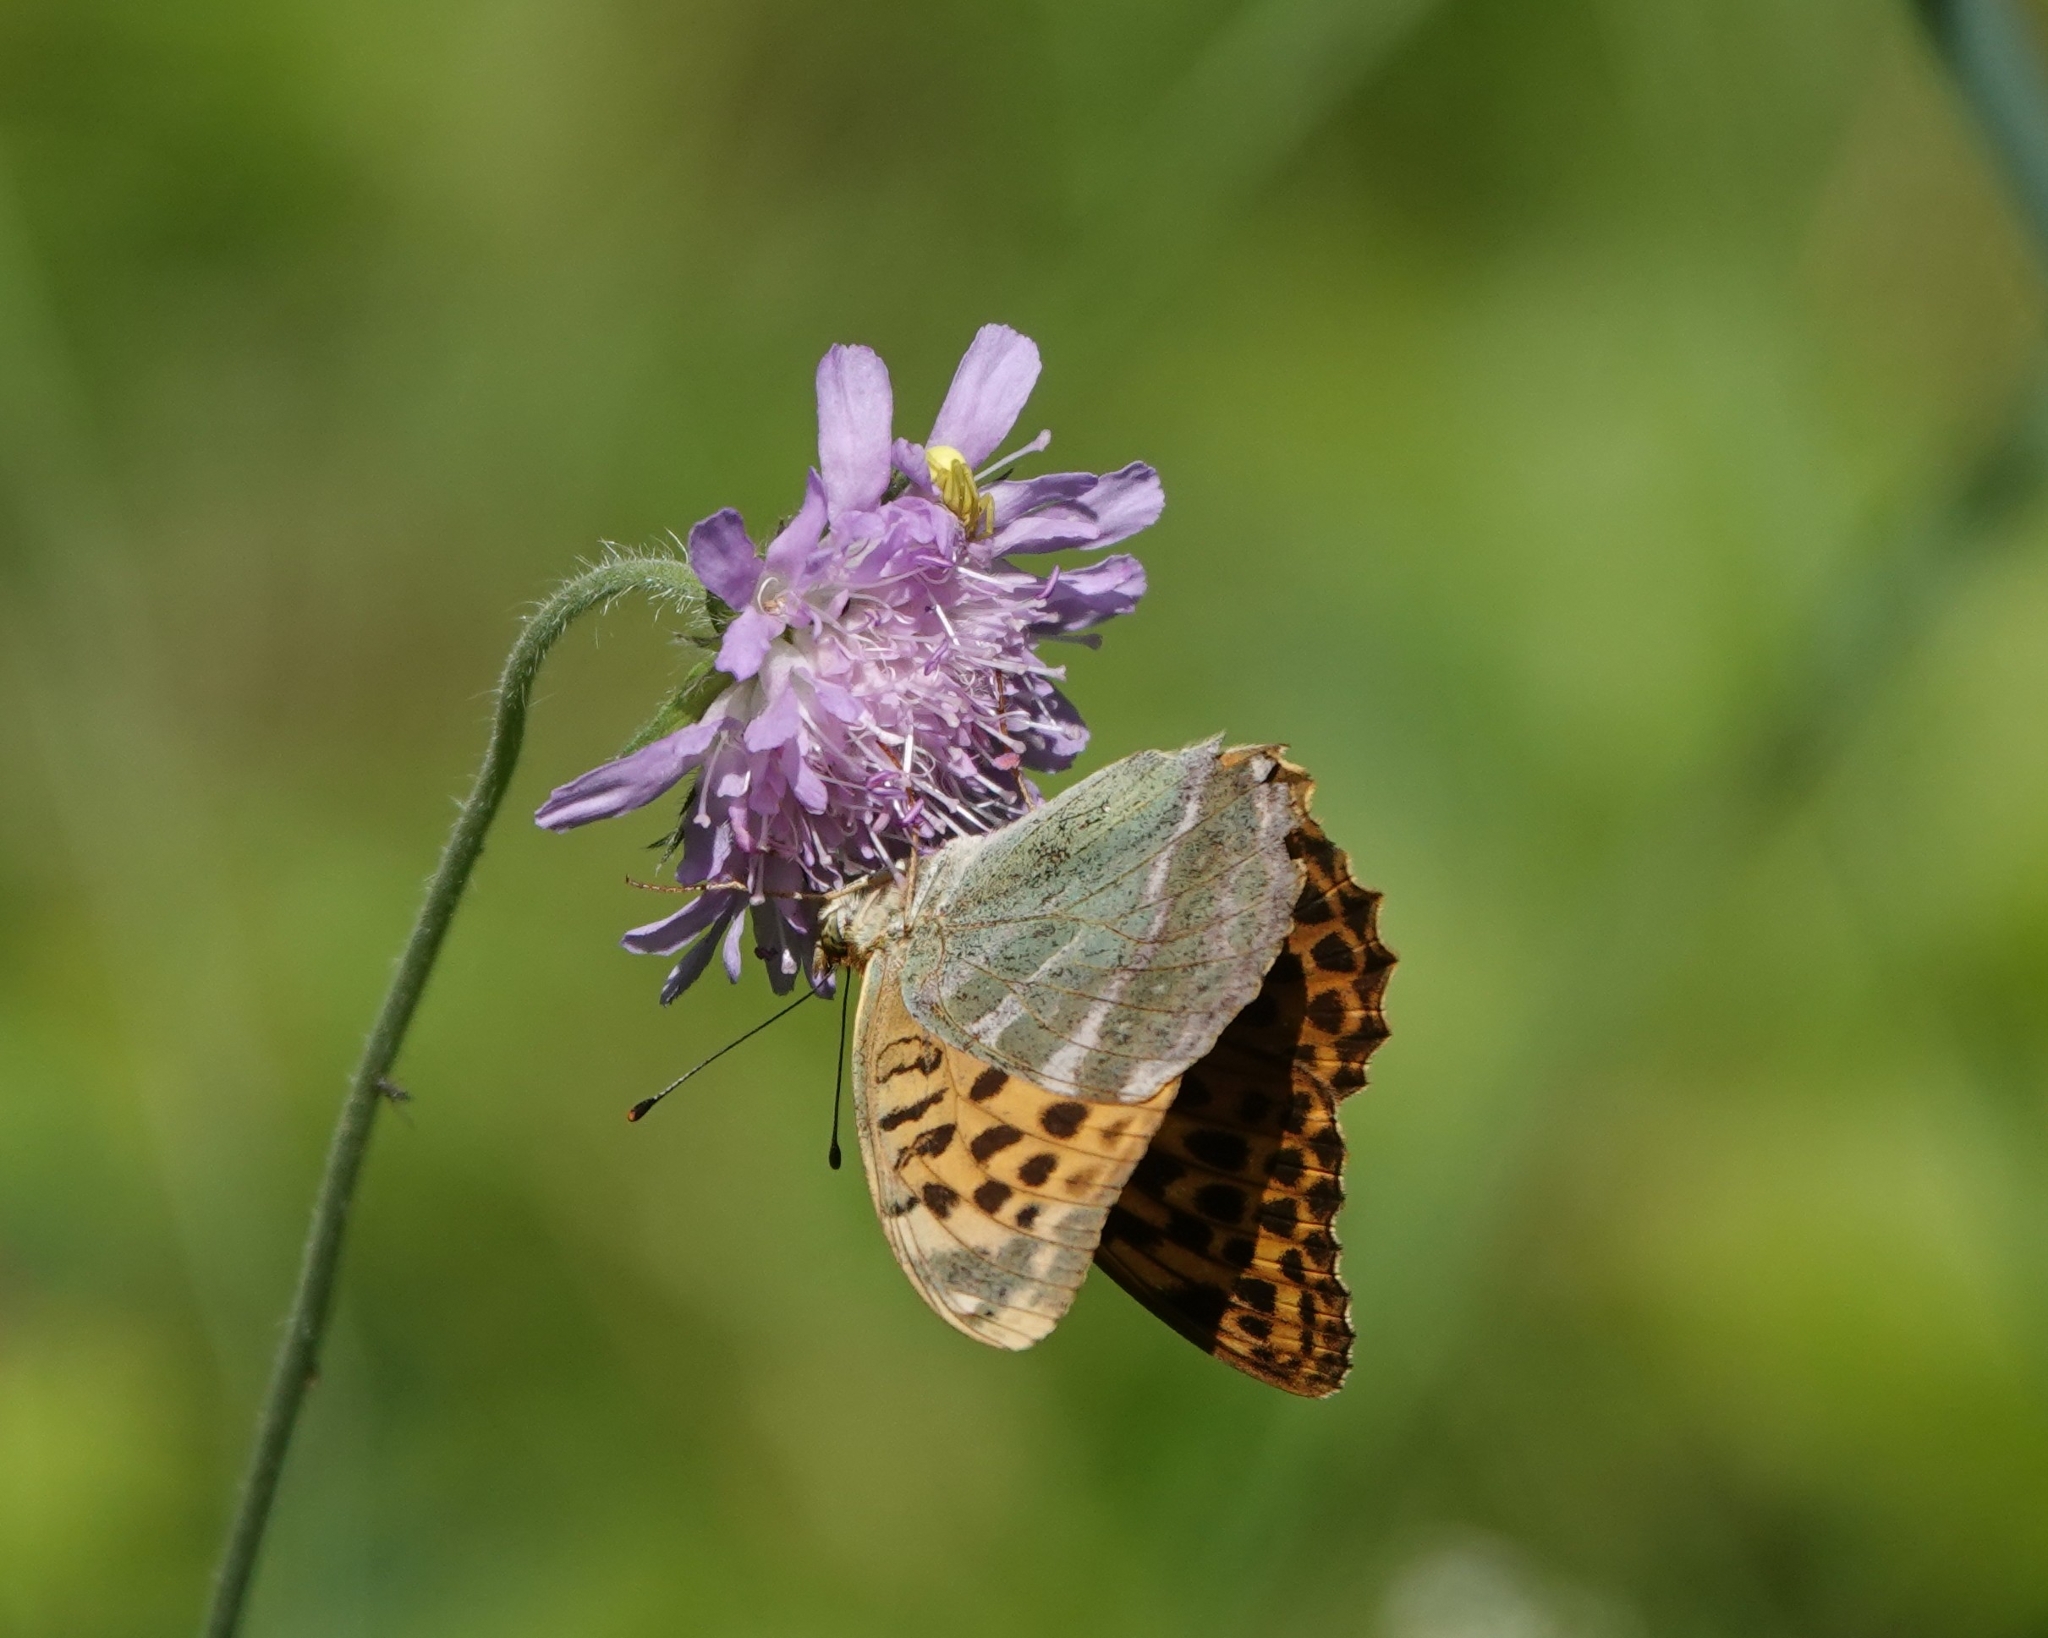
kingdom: Animalia
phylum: Arthropoda
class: Insecta
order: Lepidoptera
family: Nymphalidae
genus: Argynnis
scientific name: Argynnis paphia
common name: Silver-washed fritillary
